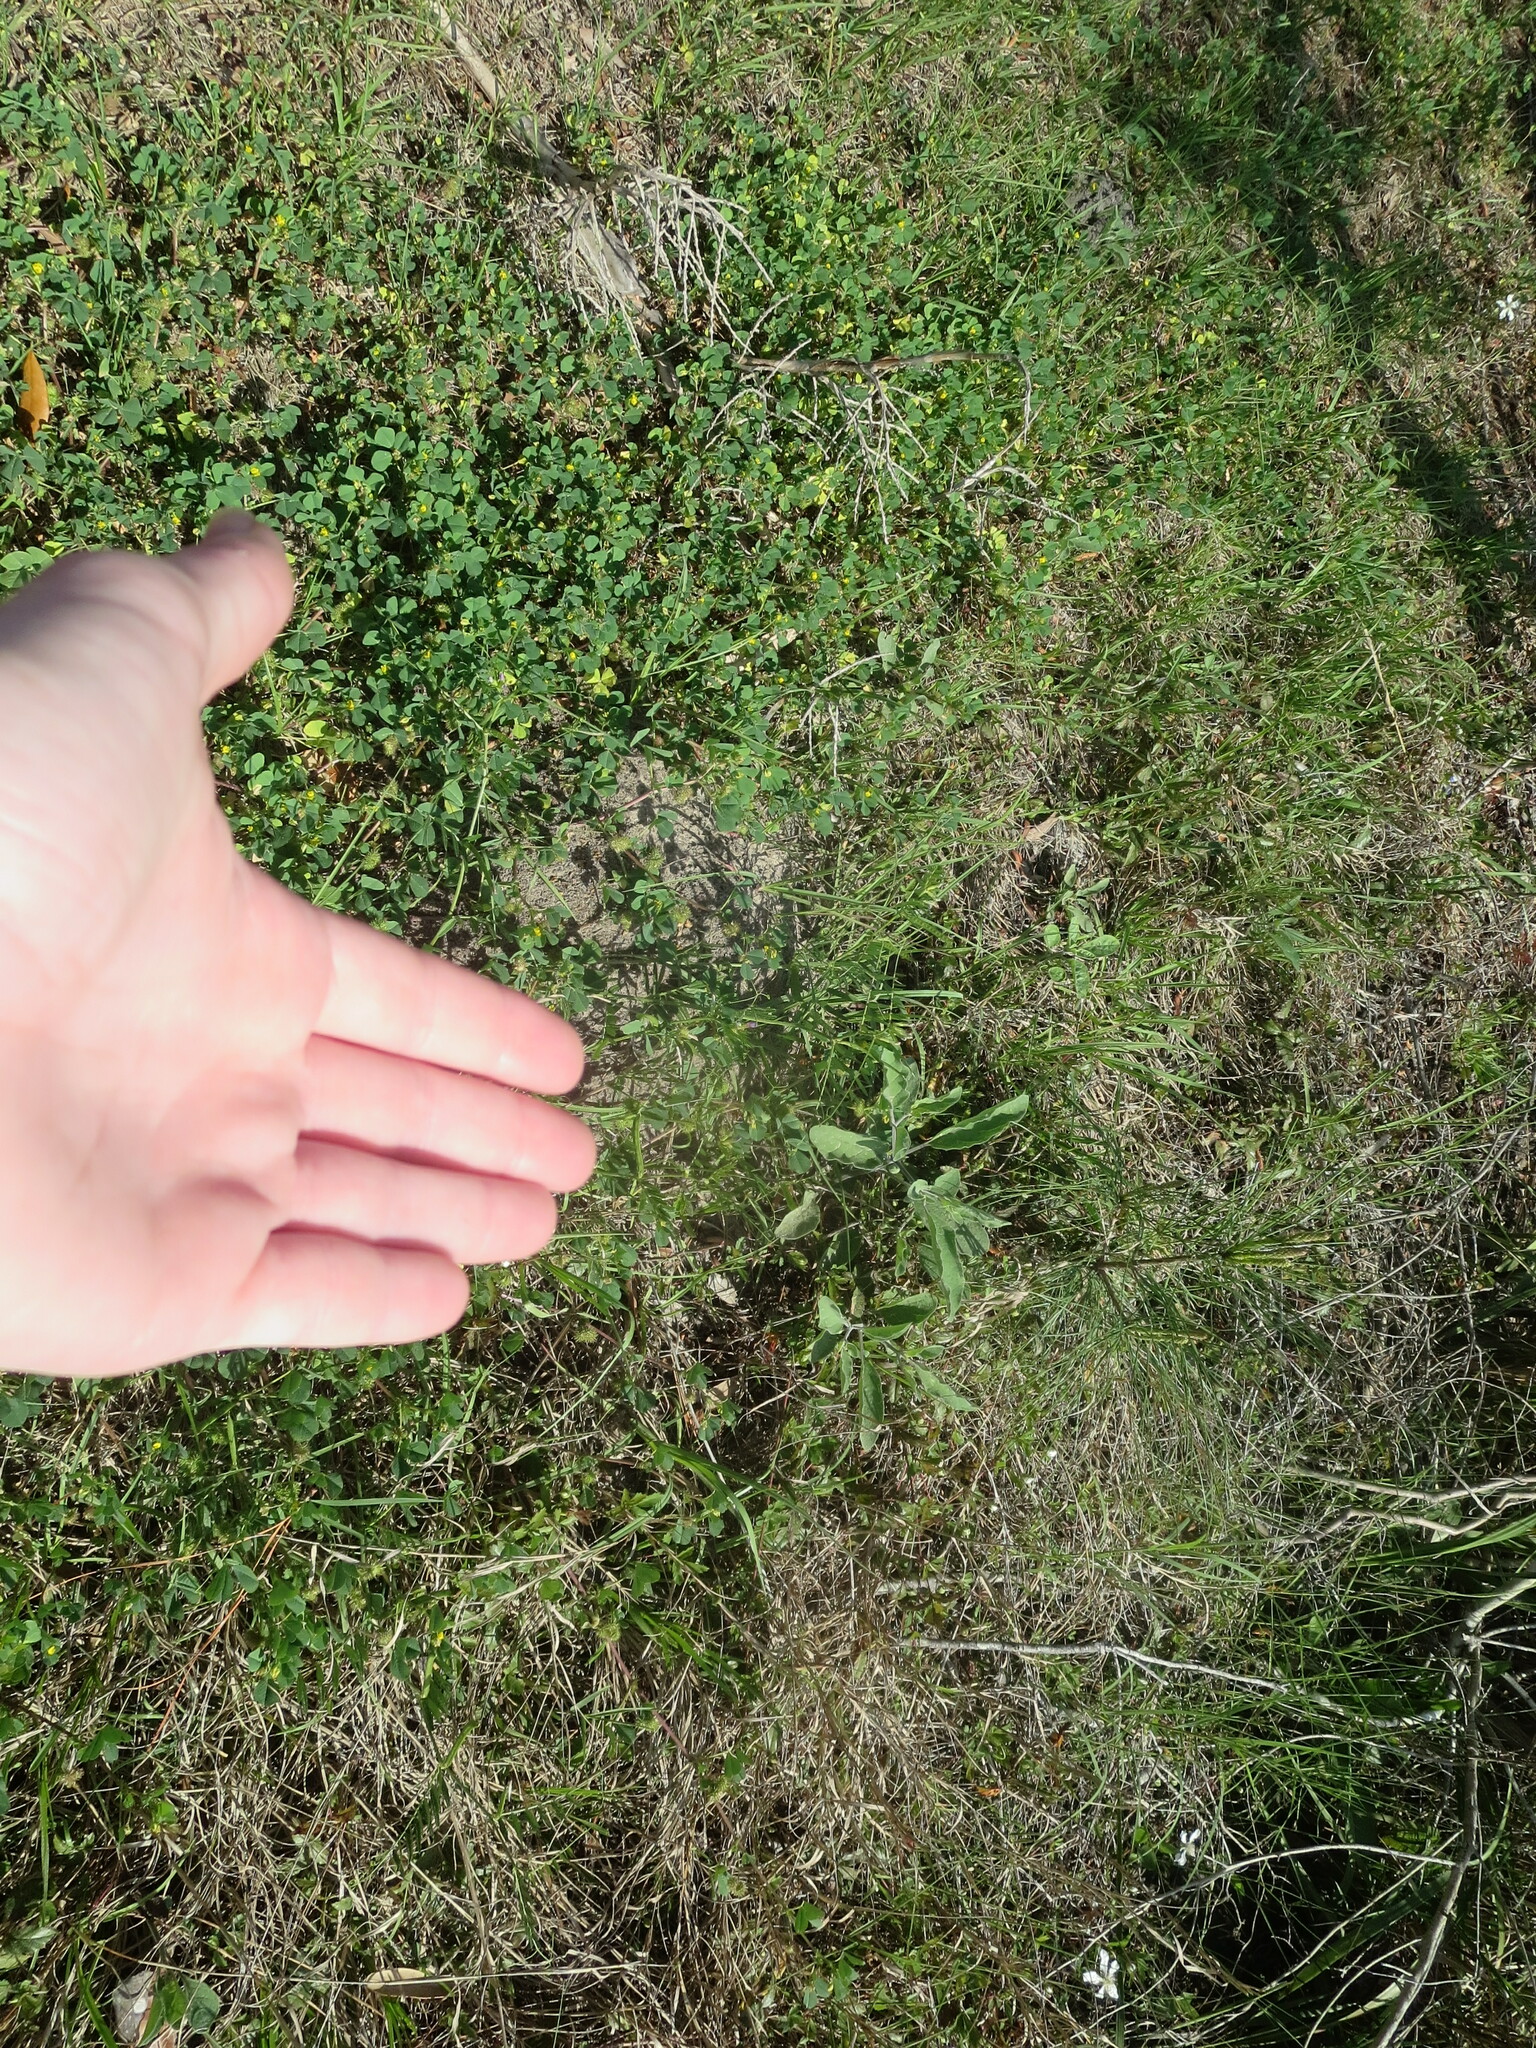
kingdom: Plantae
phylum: Tracheophyta
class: Magnoliopsida
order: Solanales
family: Solanaceae
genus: Physalis
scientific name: Physalis walteri
